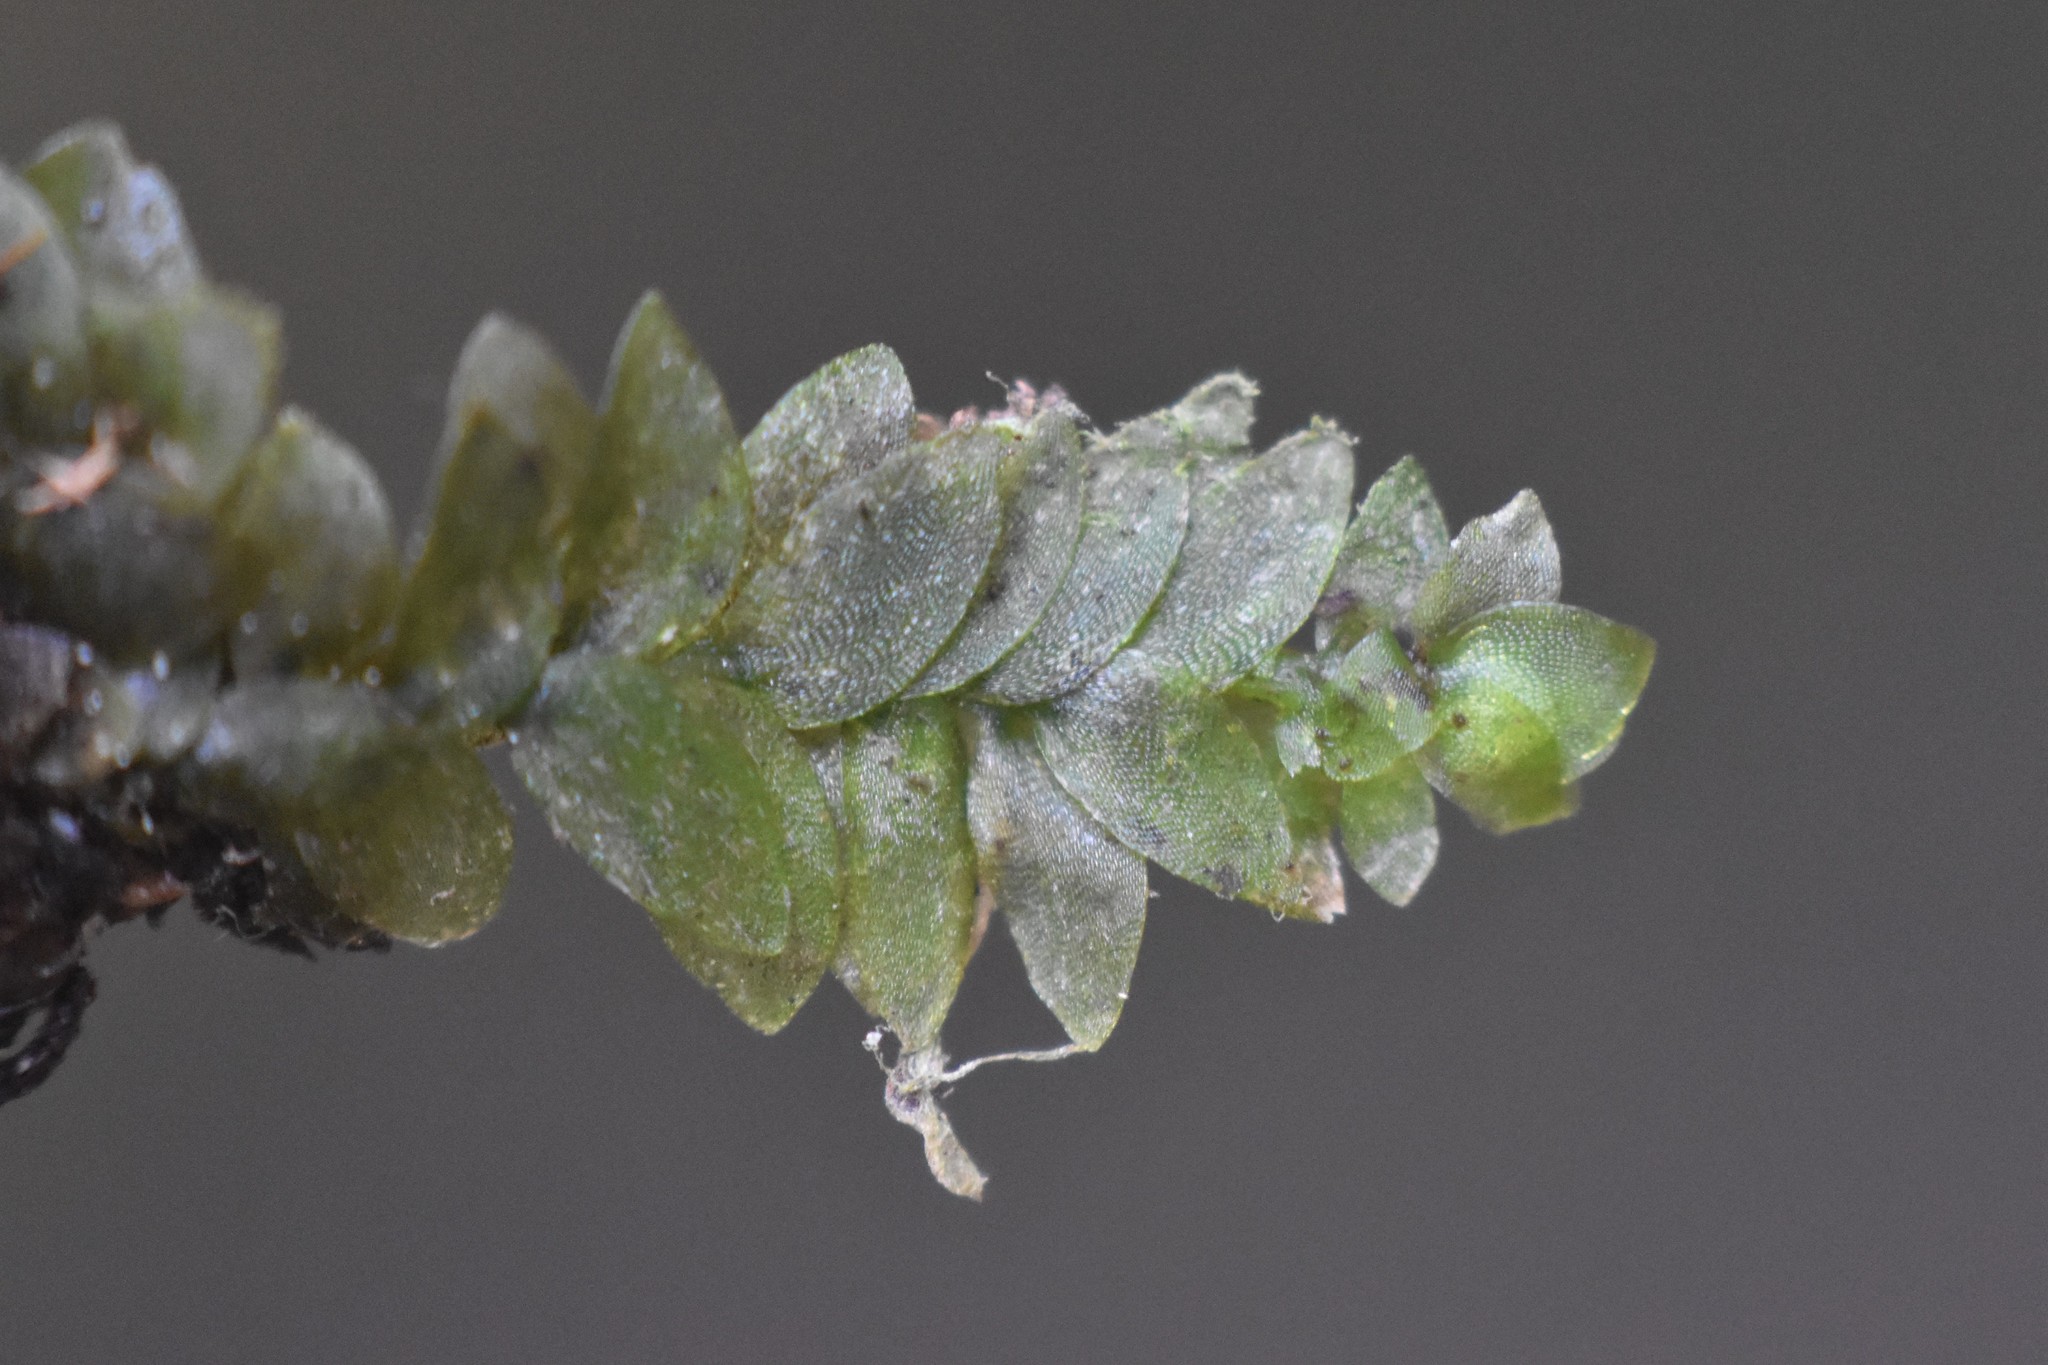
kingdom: Plantae
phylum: Bryophyta
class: Bryopsida
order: Hookeriales
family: Hookeriaceae
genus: Hookeria
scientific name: Hookeria lucens
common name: Shining hookeria
